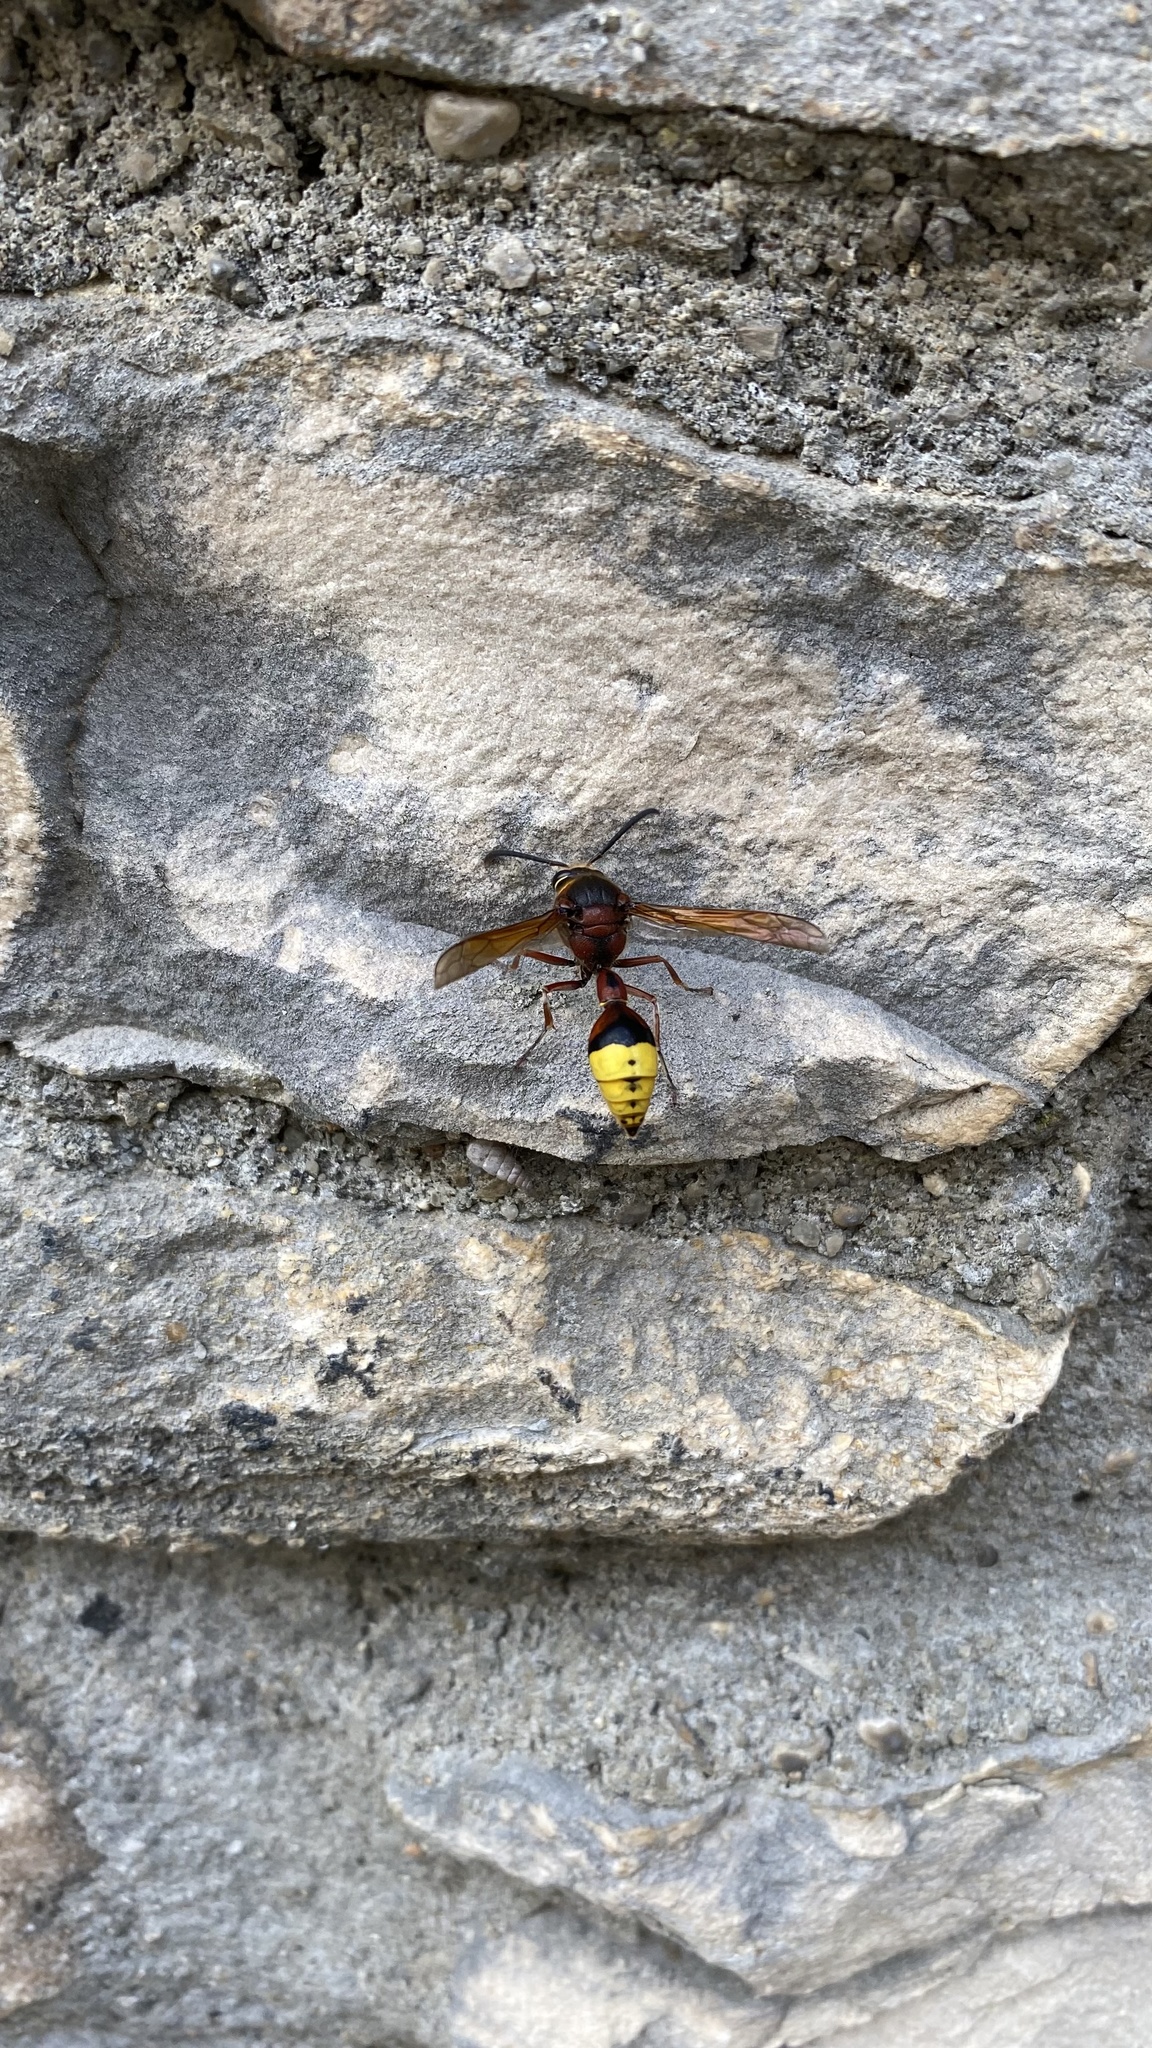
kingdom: Animalia
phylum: Arthropoda
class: Insecta
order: Hymenoptera
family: Eumenidae
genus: Delta
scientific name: Delta unguiculatum
